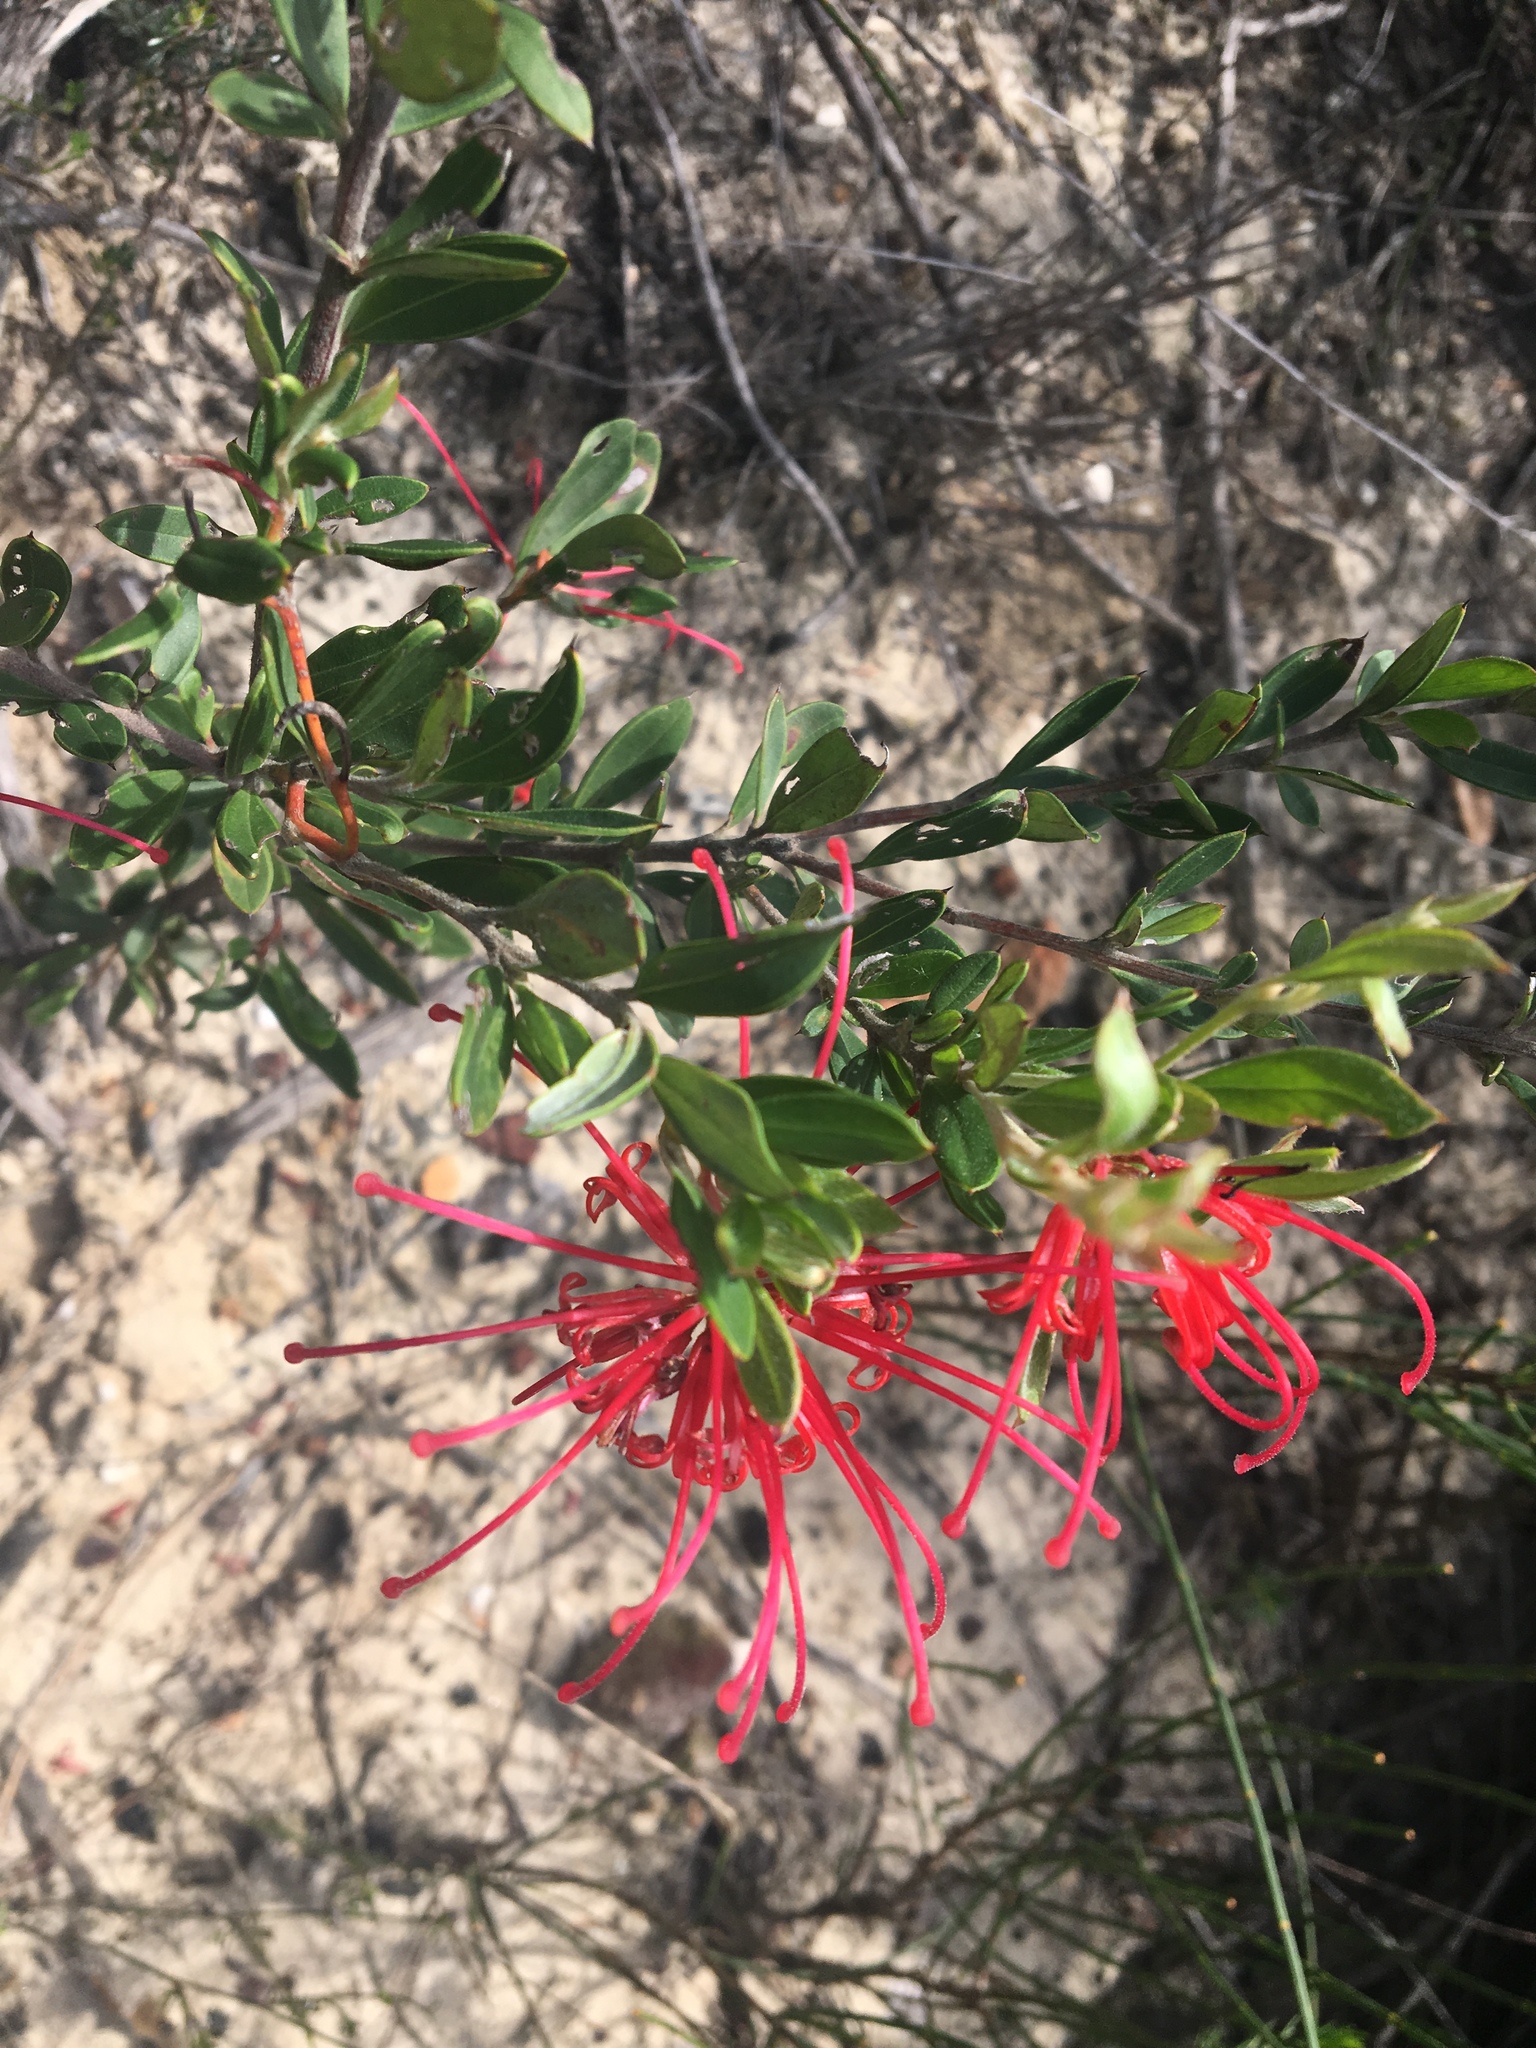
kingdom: Plantae
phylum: Tracheophyta
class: Magnoliopsida
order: Proteales
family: Proteaceae
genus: Grevillea
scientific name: Grevillea speciosa
